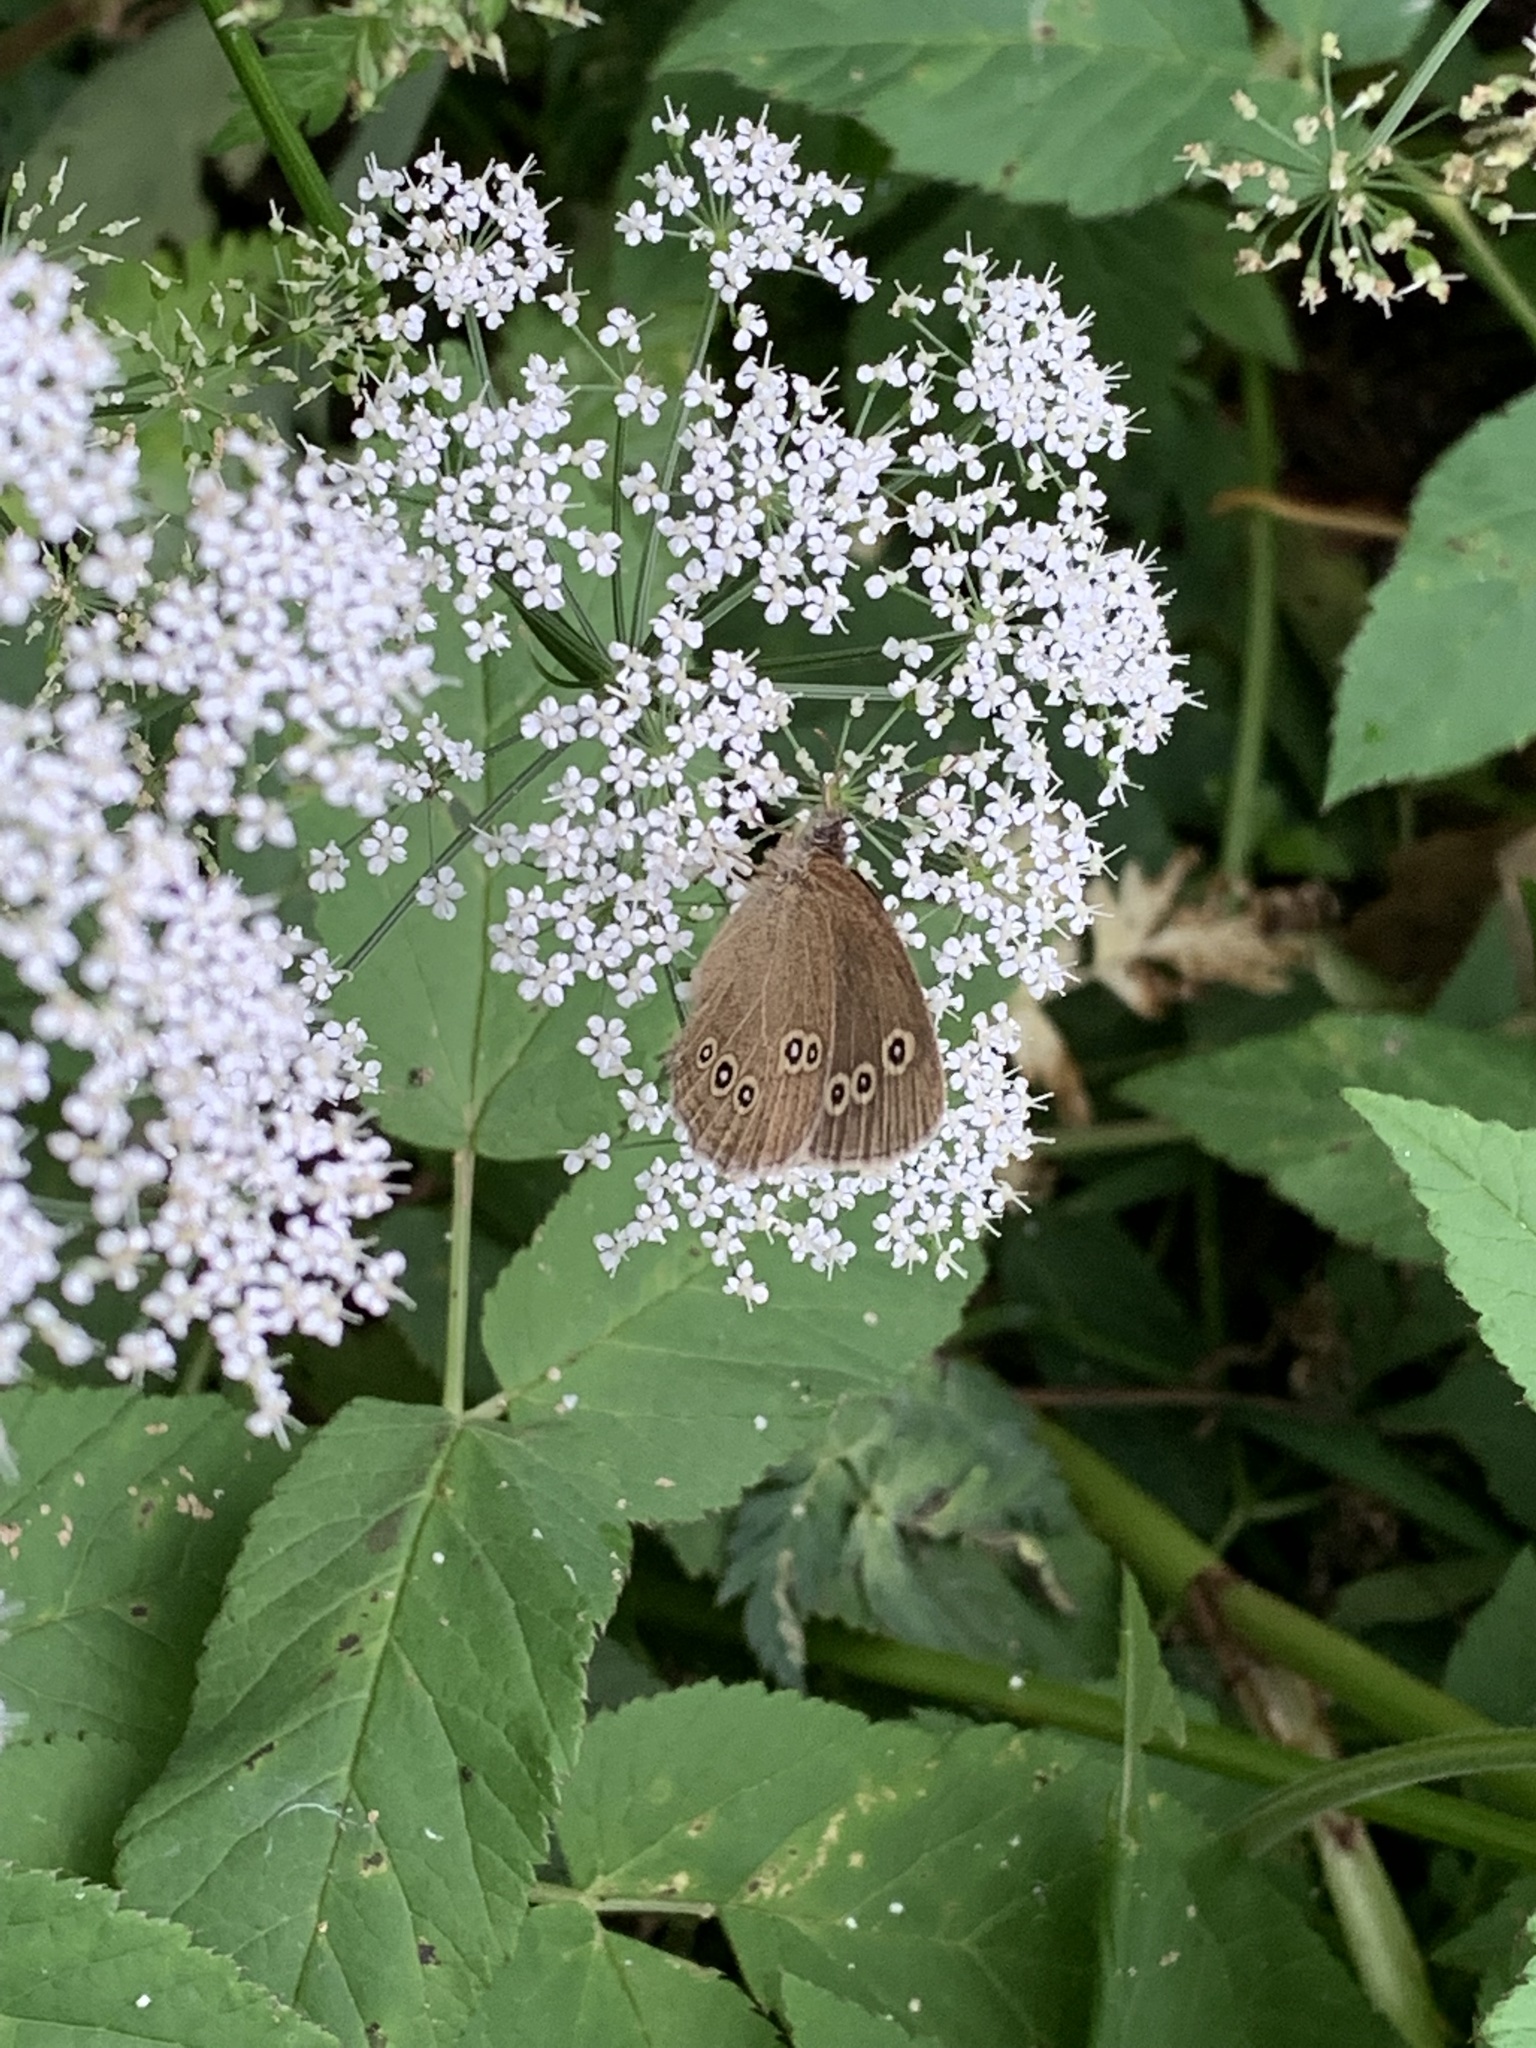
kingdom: Animalia
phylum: Arthropoda
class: Insecta
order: Lepidoptera
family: Nymphalidae
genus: Aphantopus
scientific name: Aphantopus hyperantus
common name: Ringlet
